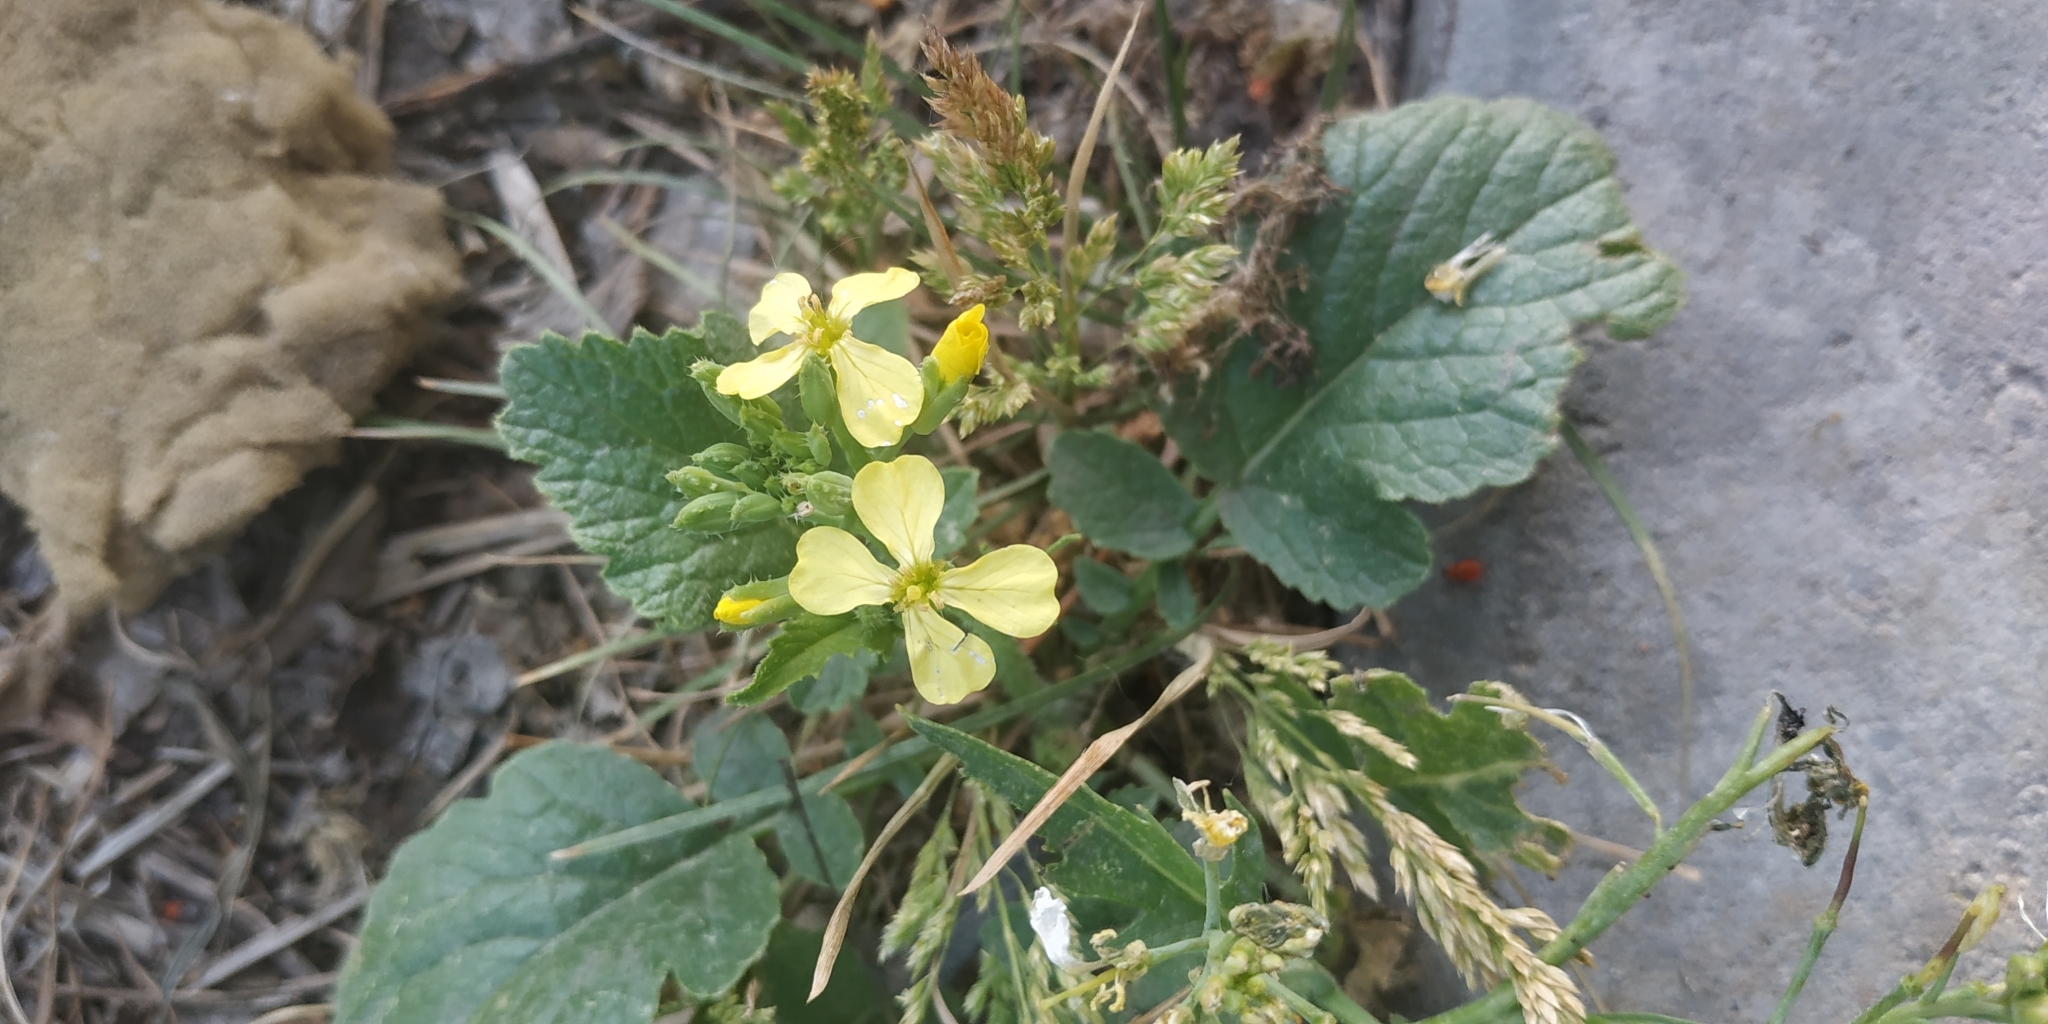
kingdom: Plantae
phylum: Tracheophyta
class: Magnoliopsida
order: Brassicales
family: Brassicaceae
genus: Raphanus
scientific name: Raphanus raphanistrum
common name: Wild radish
